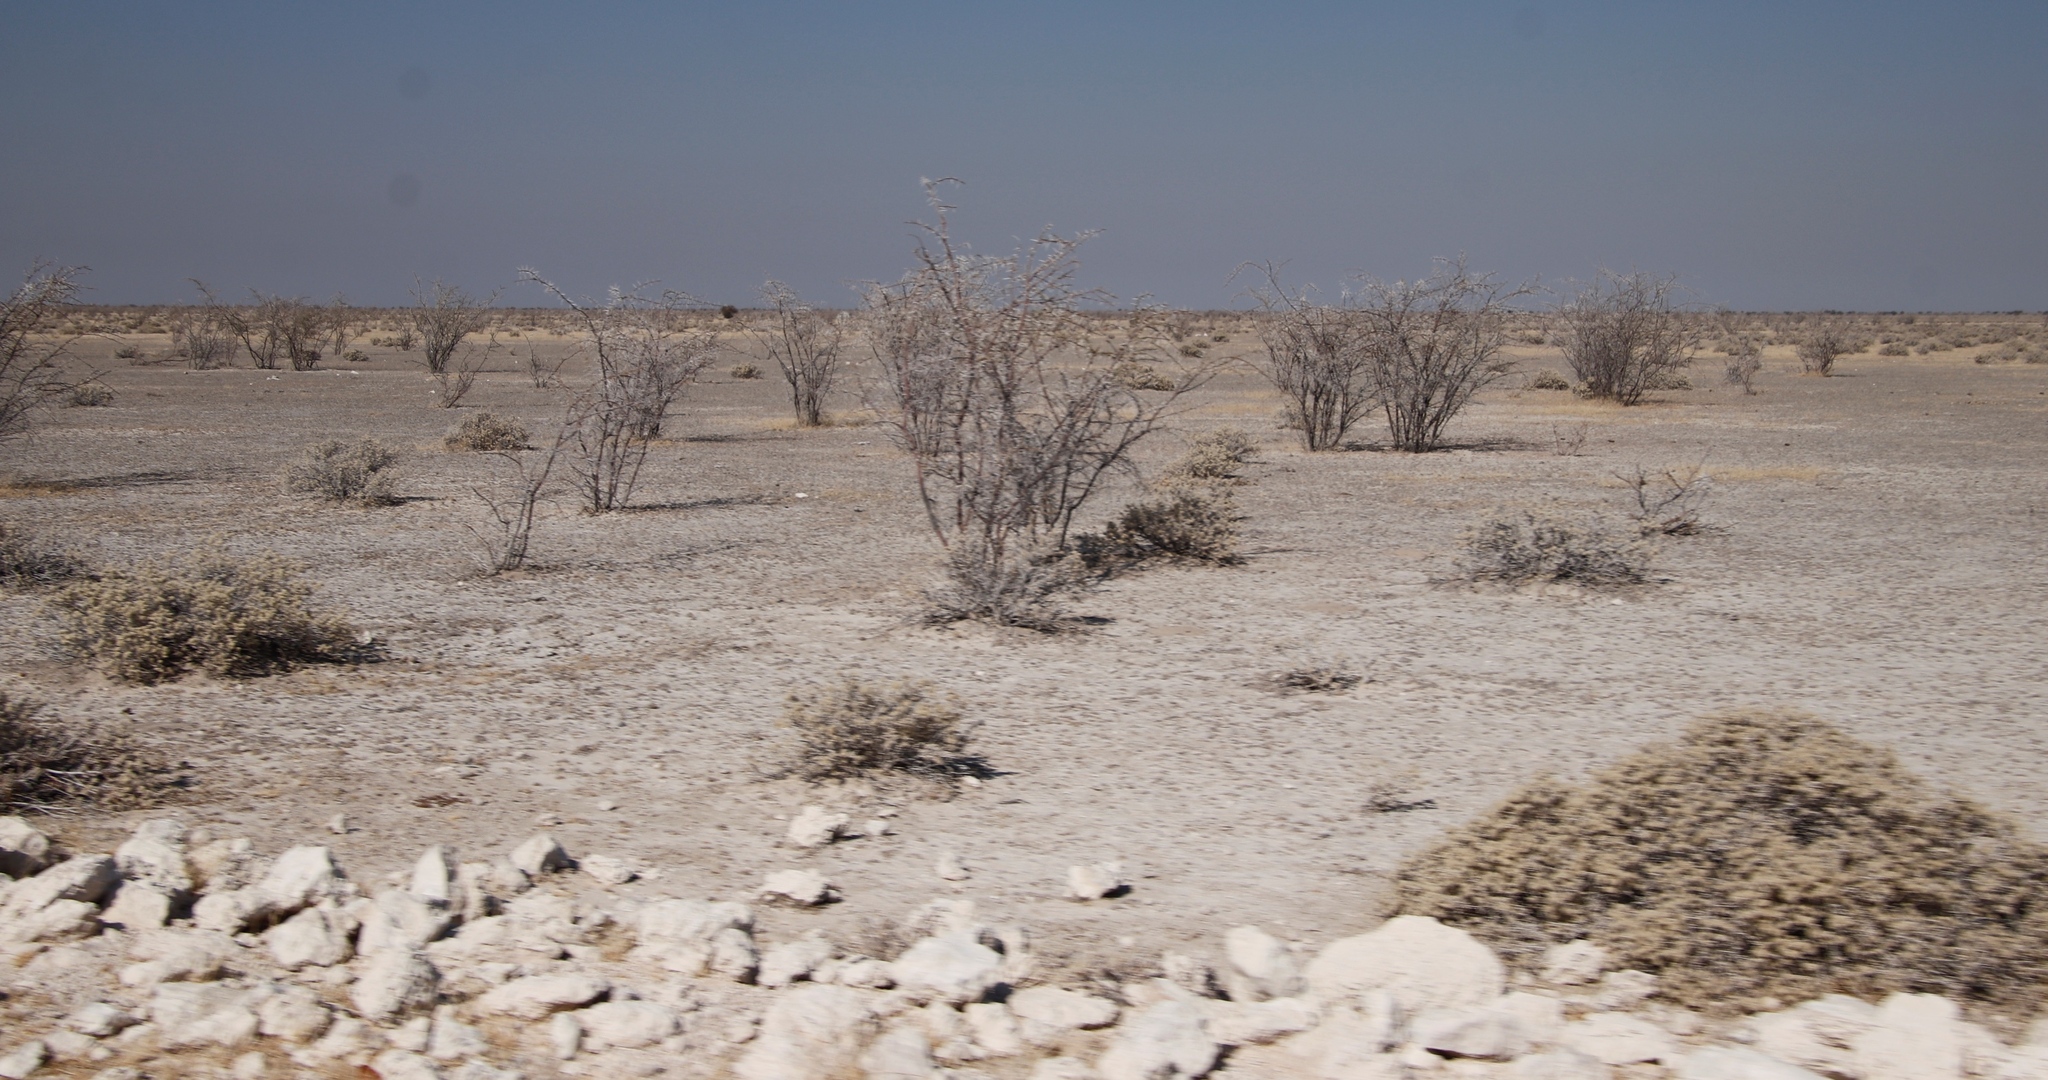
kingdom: Plantae
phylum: Tracheophyta
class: Magnoliopsida
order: Fabales
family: Fabaceae
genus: Vachellia
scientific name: Vachellia nebrownii
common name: Water acacia
